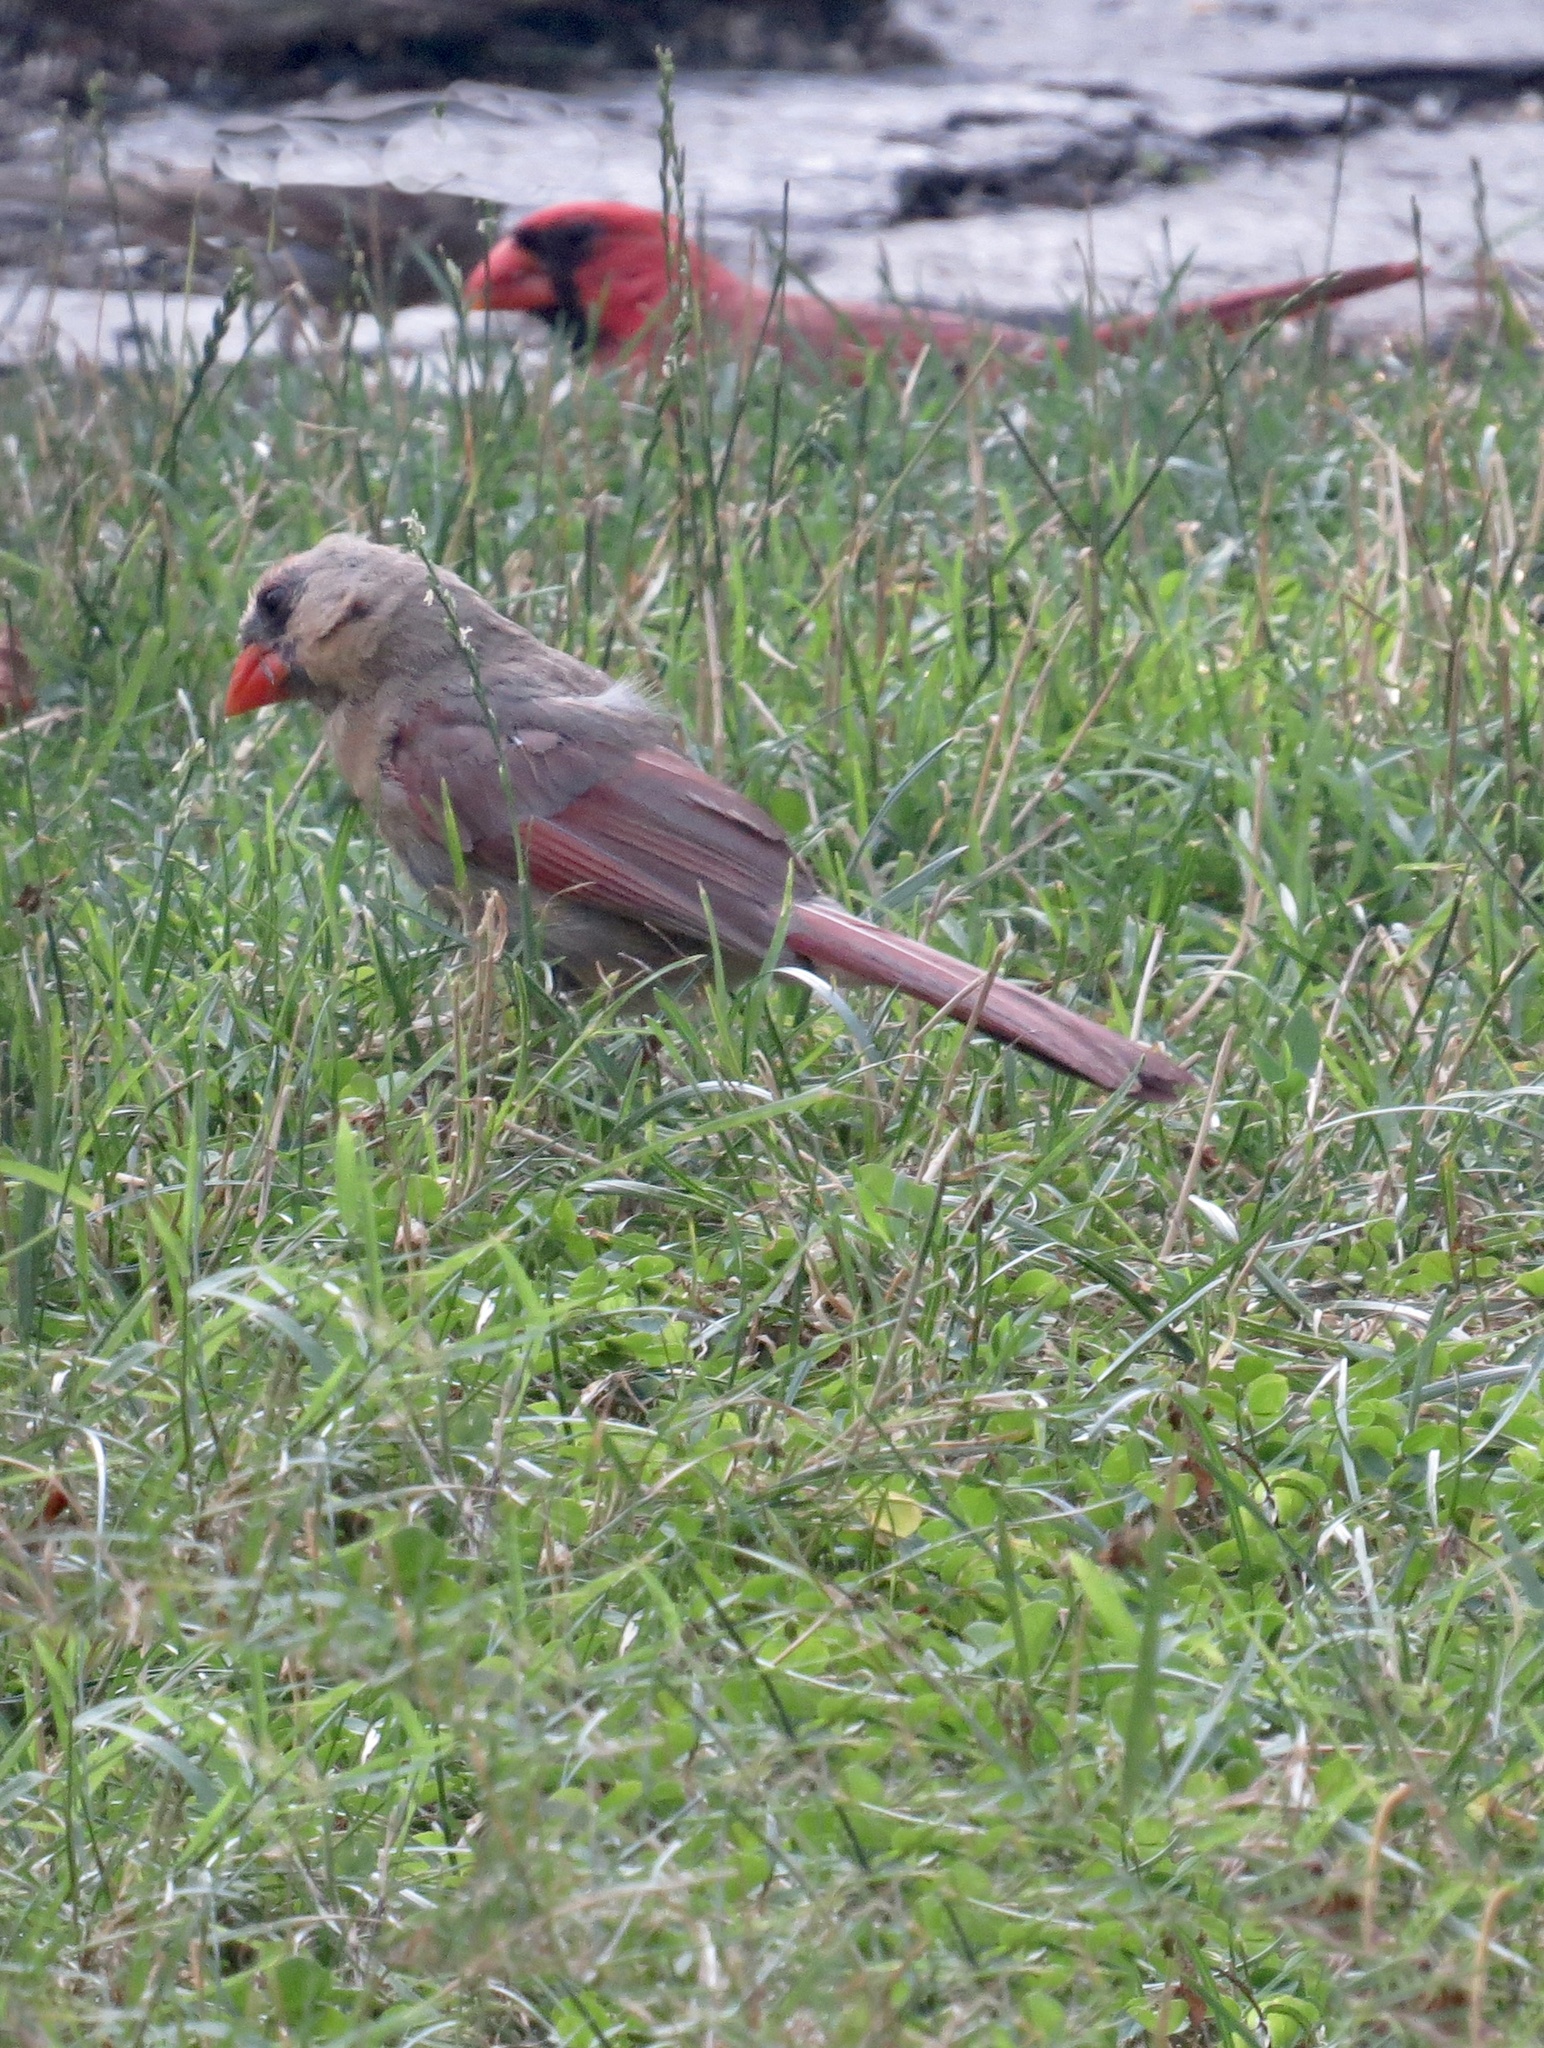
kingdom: Animalia
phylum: Chordata
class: Aves
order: Passeriformes
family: Cardinalidae
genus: Cardinalis
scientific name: Cardinalis cardinalis
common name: Northern cardinal
